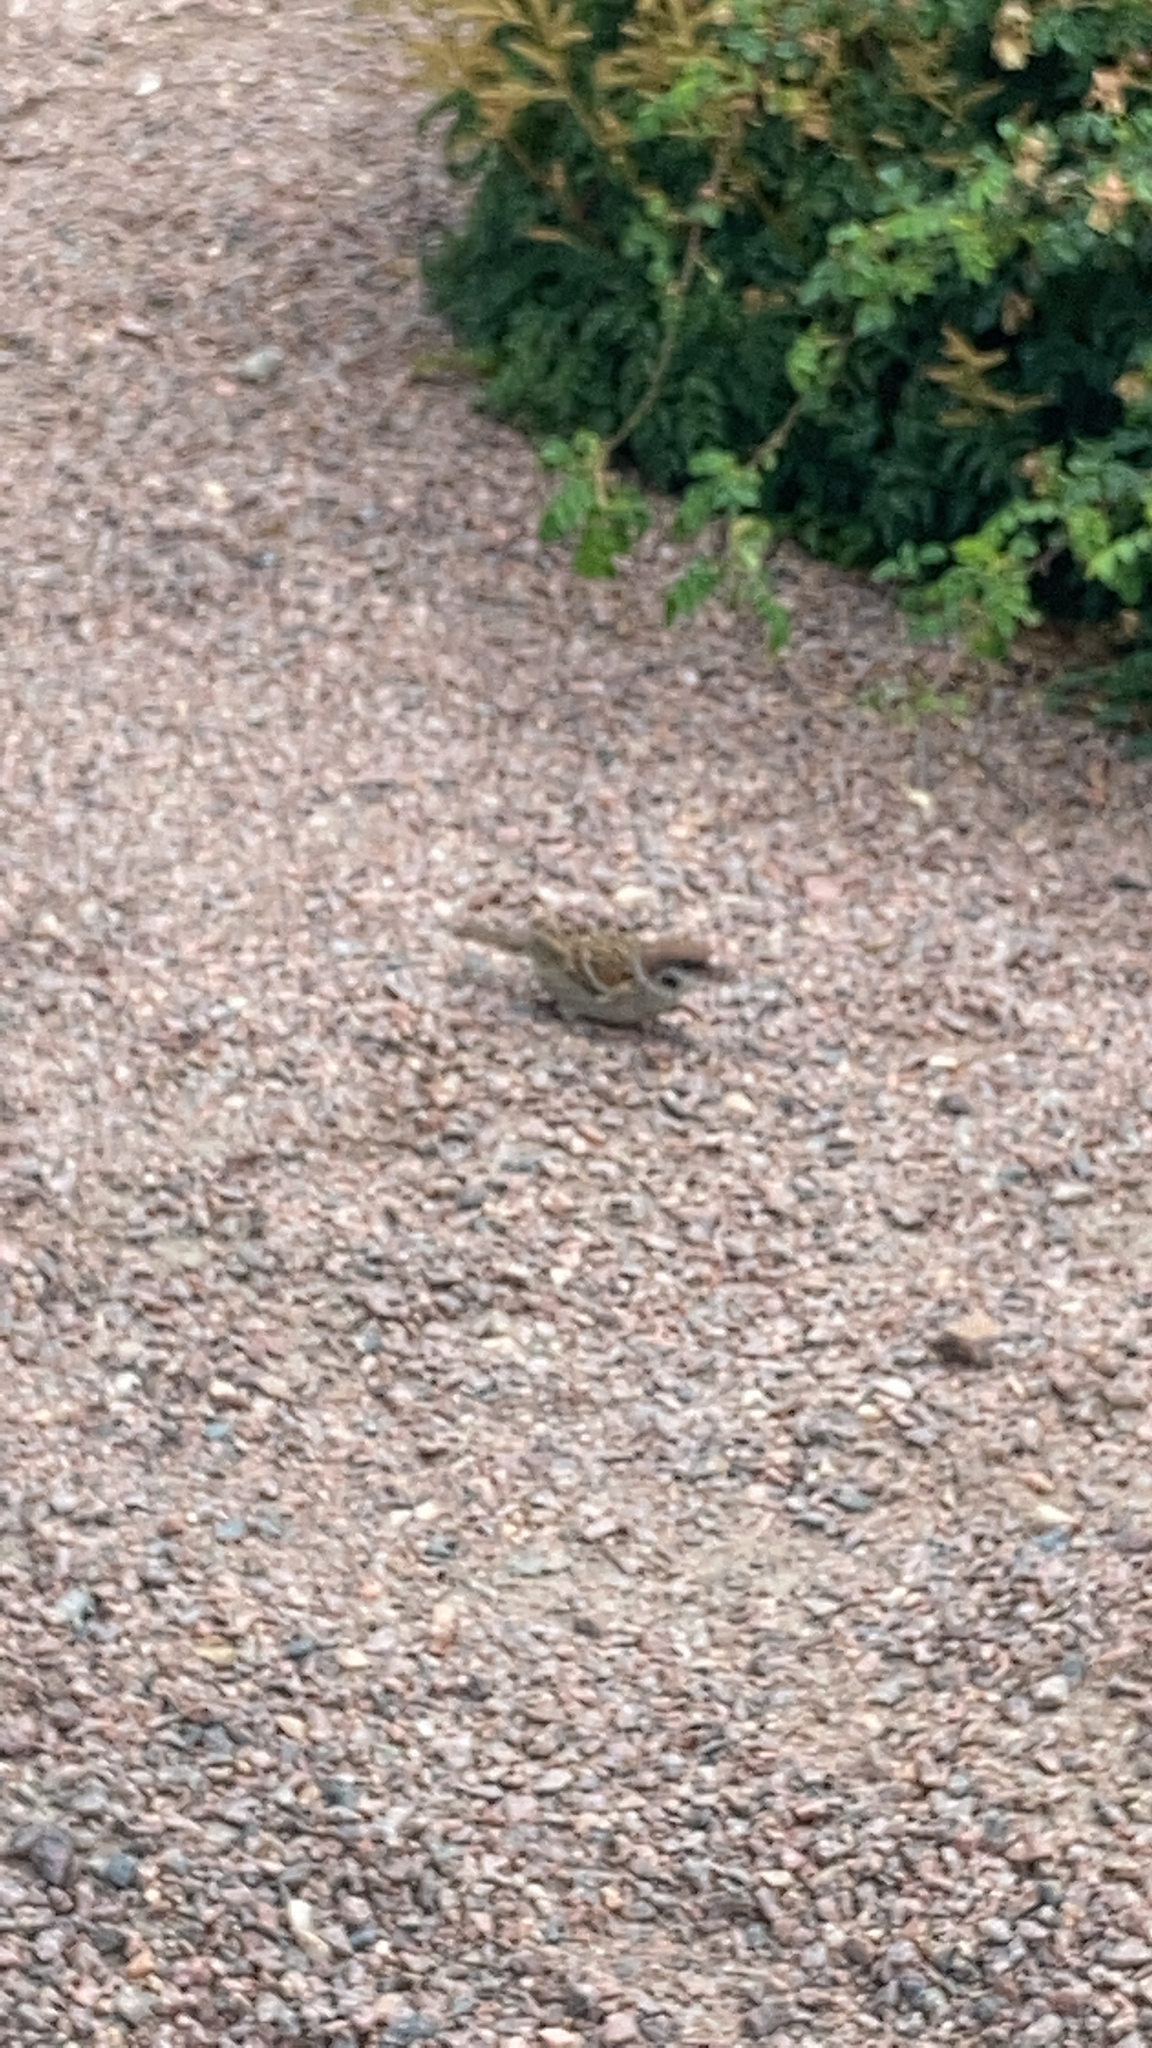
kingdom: Animalia
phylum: Chordata
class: Aves
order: Passeriformes
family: Passeridae
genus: Passer
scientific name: Passer montanus
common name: Eurasian tree sparrow
